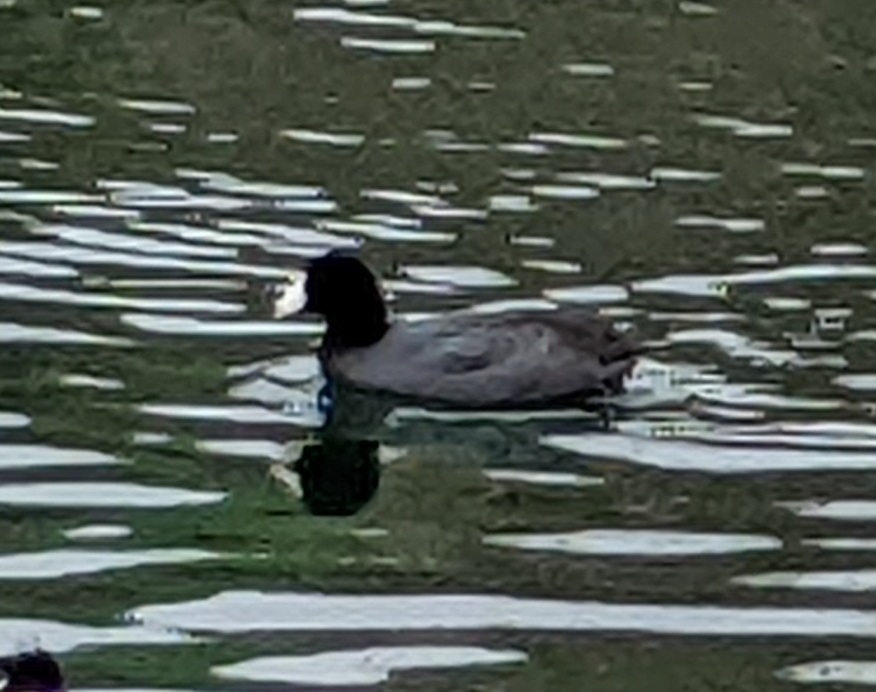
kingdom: Animalia
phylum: Chordata
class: Aves
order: Gruiformes
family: Rallidae
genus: Fulica
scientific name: Fulica americana
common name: American coot
